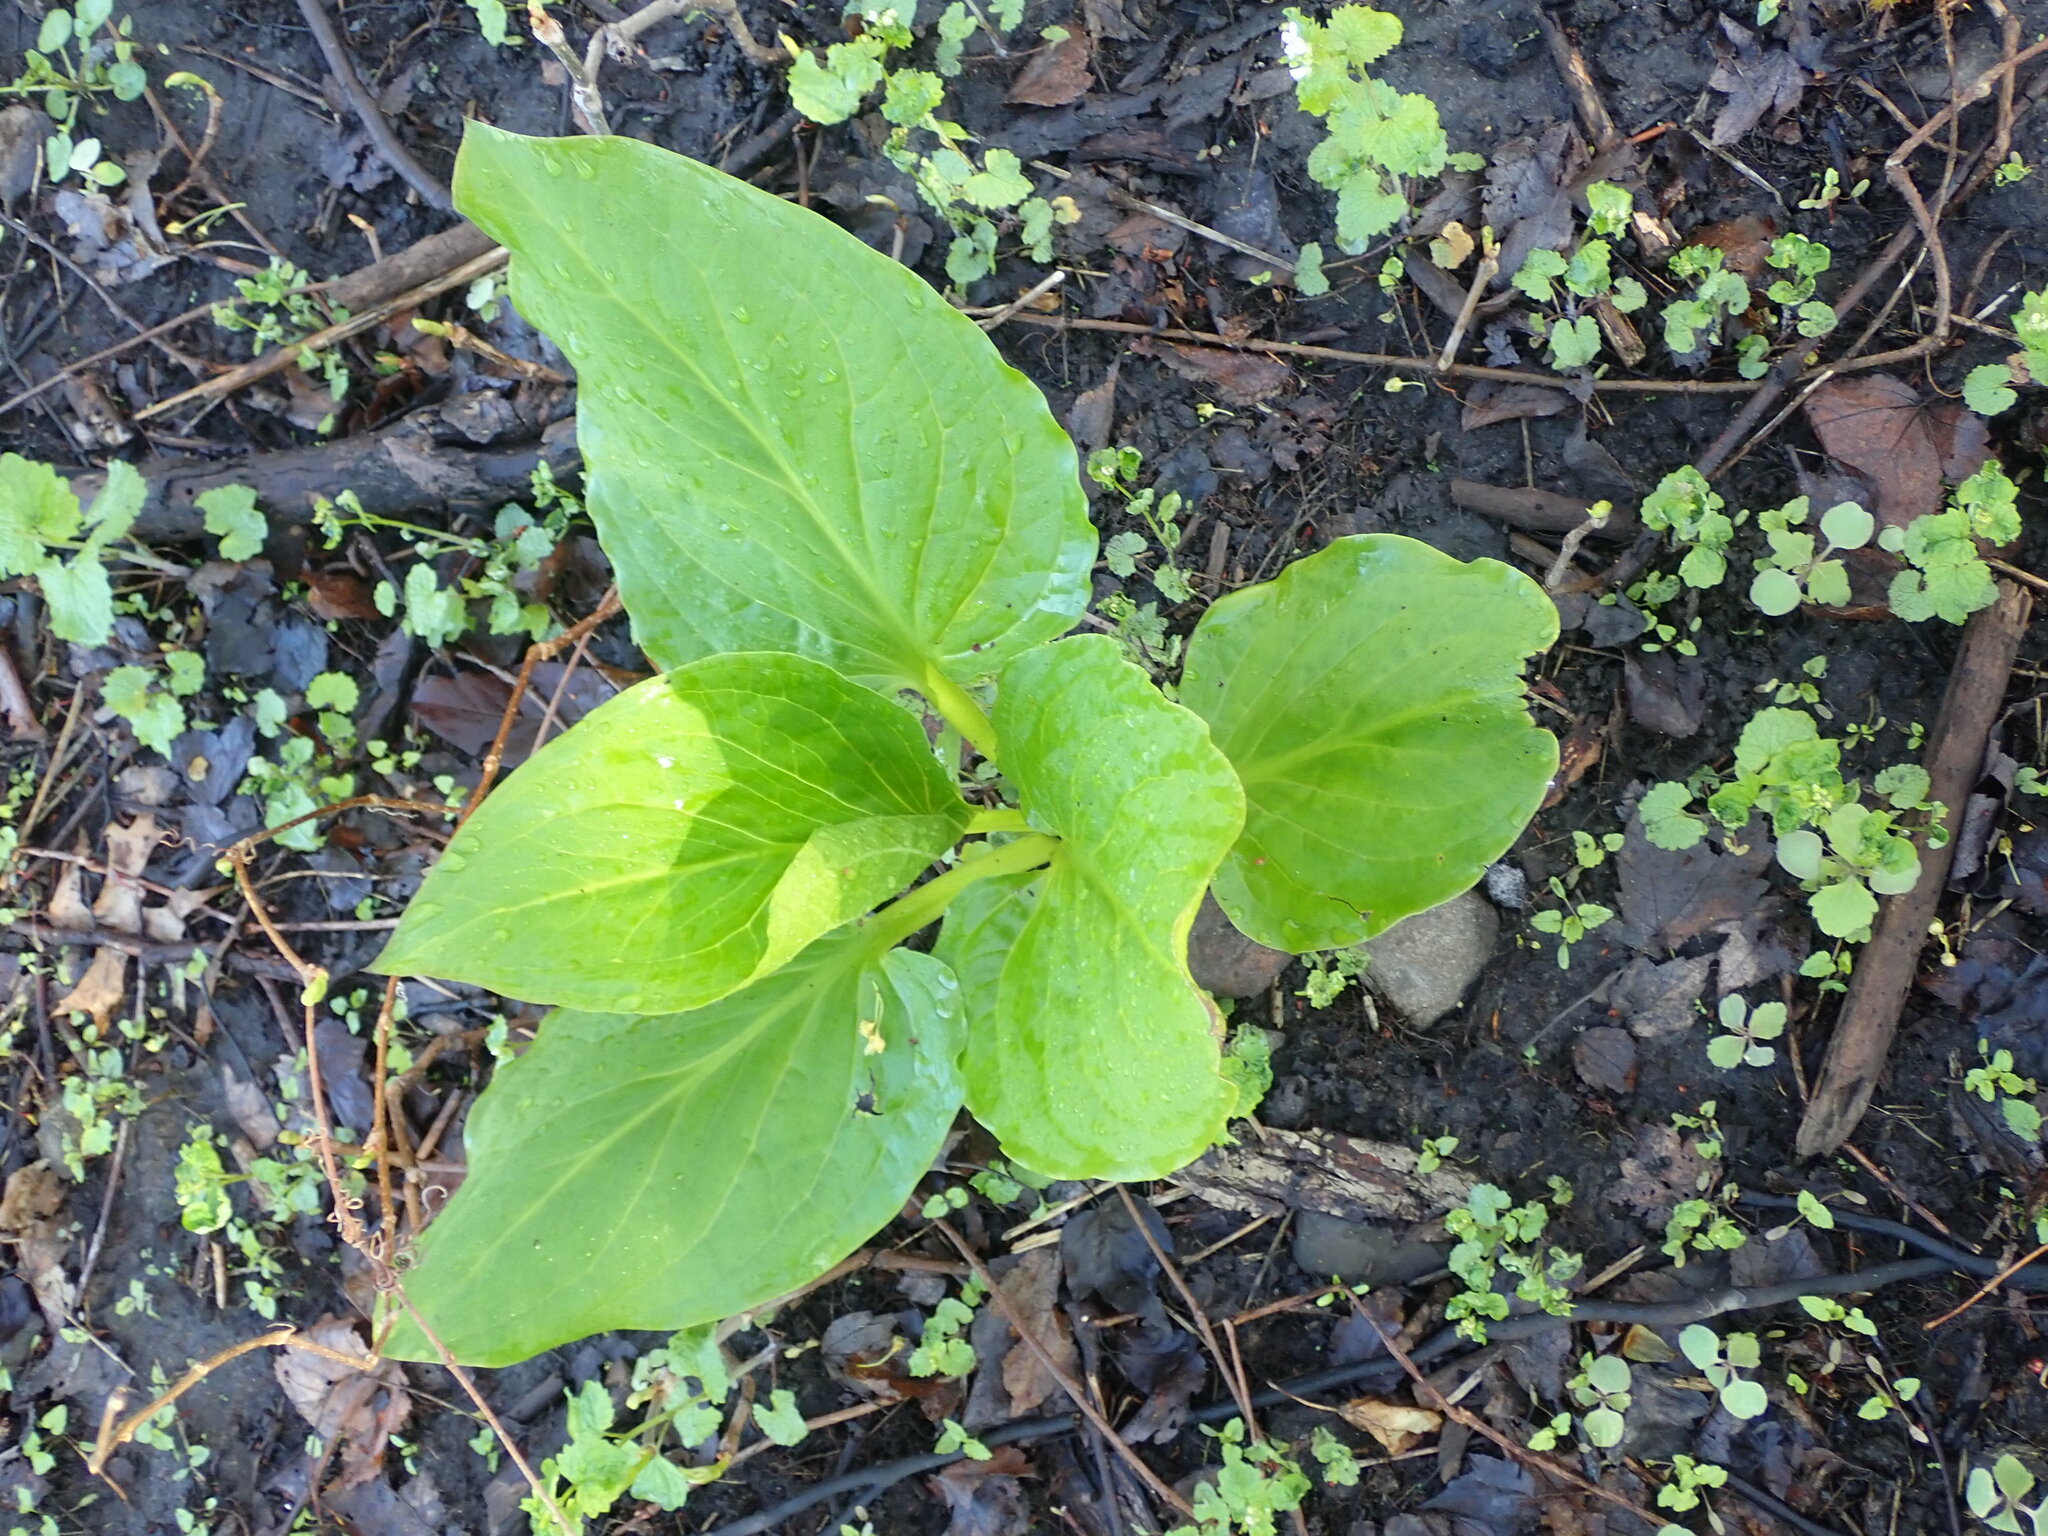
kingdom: Plantae
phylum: Tracheophyta
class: Liliopsida
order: Alismatales
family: Araceae
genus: Symplocarpus
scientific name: Symplocarpus foetidus
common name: Eastern skunk cabbage
